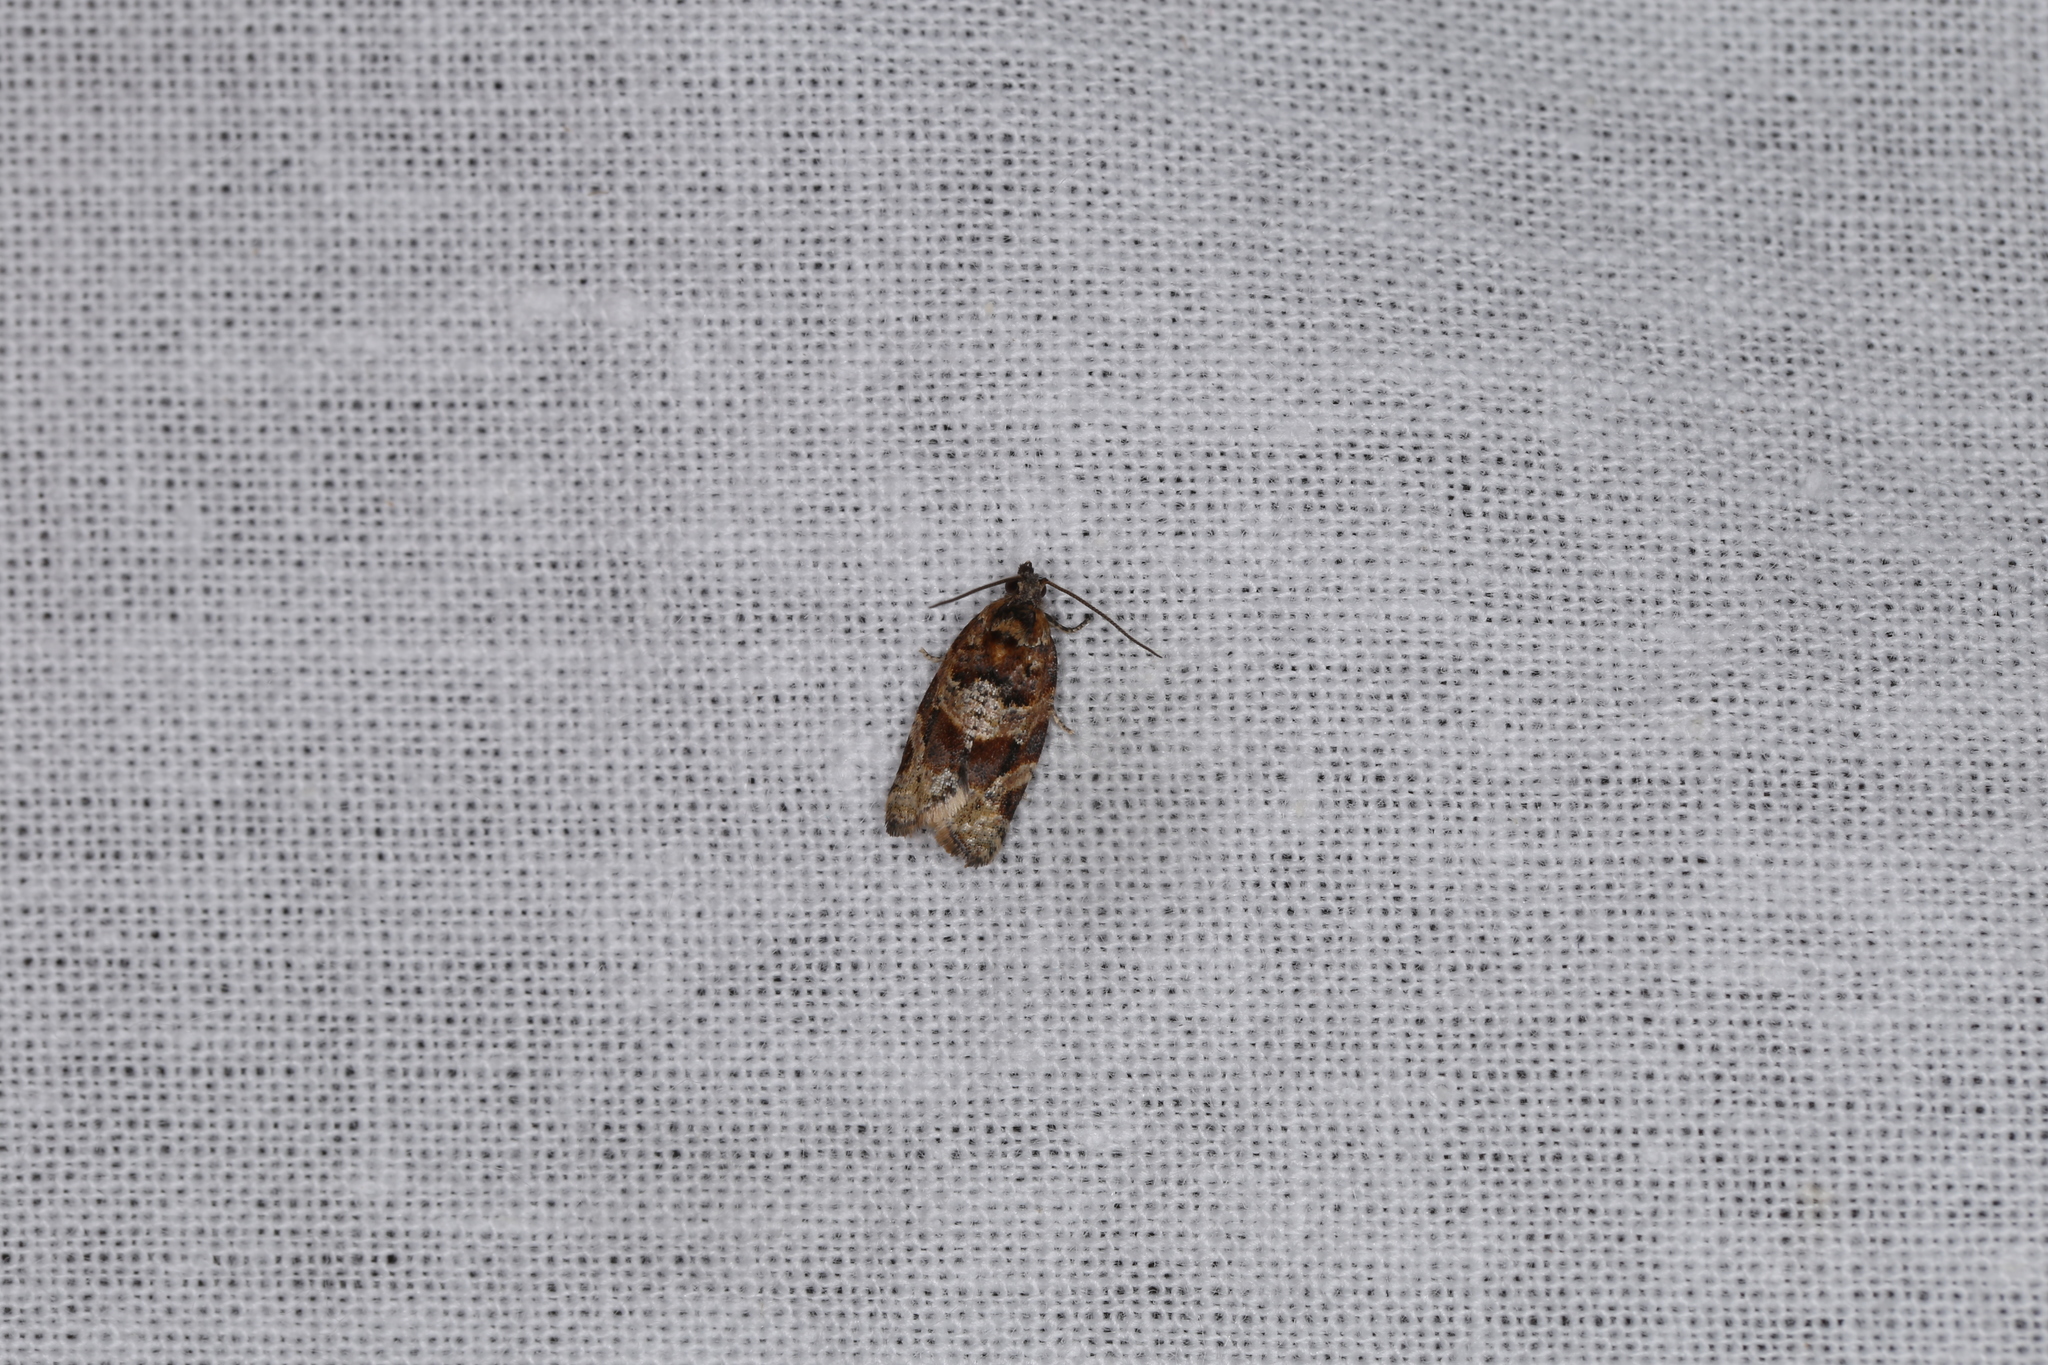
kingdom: Animalia
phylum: Arthropoda
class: Insecta
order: Lepidoptera
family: Tortricidae
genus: Argyrotaenia
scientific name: Argyrotaenia ljungiana
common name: Heather twist
